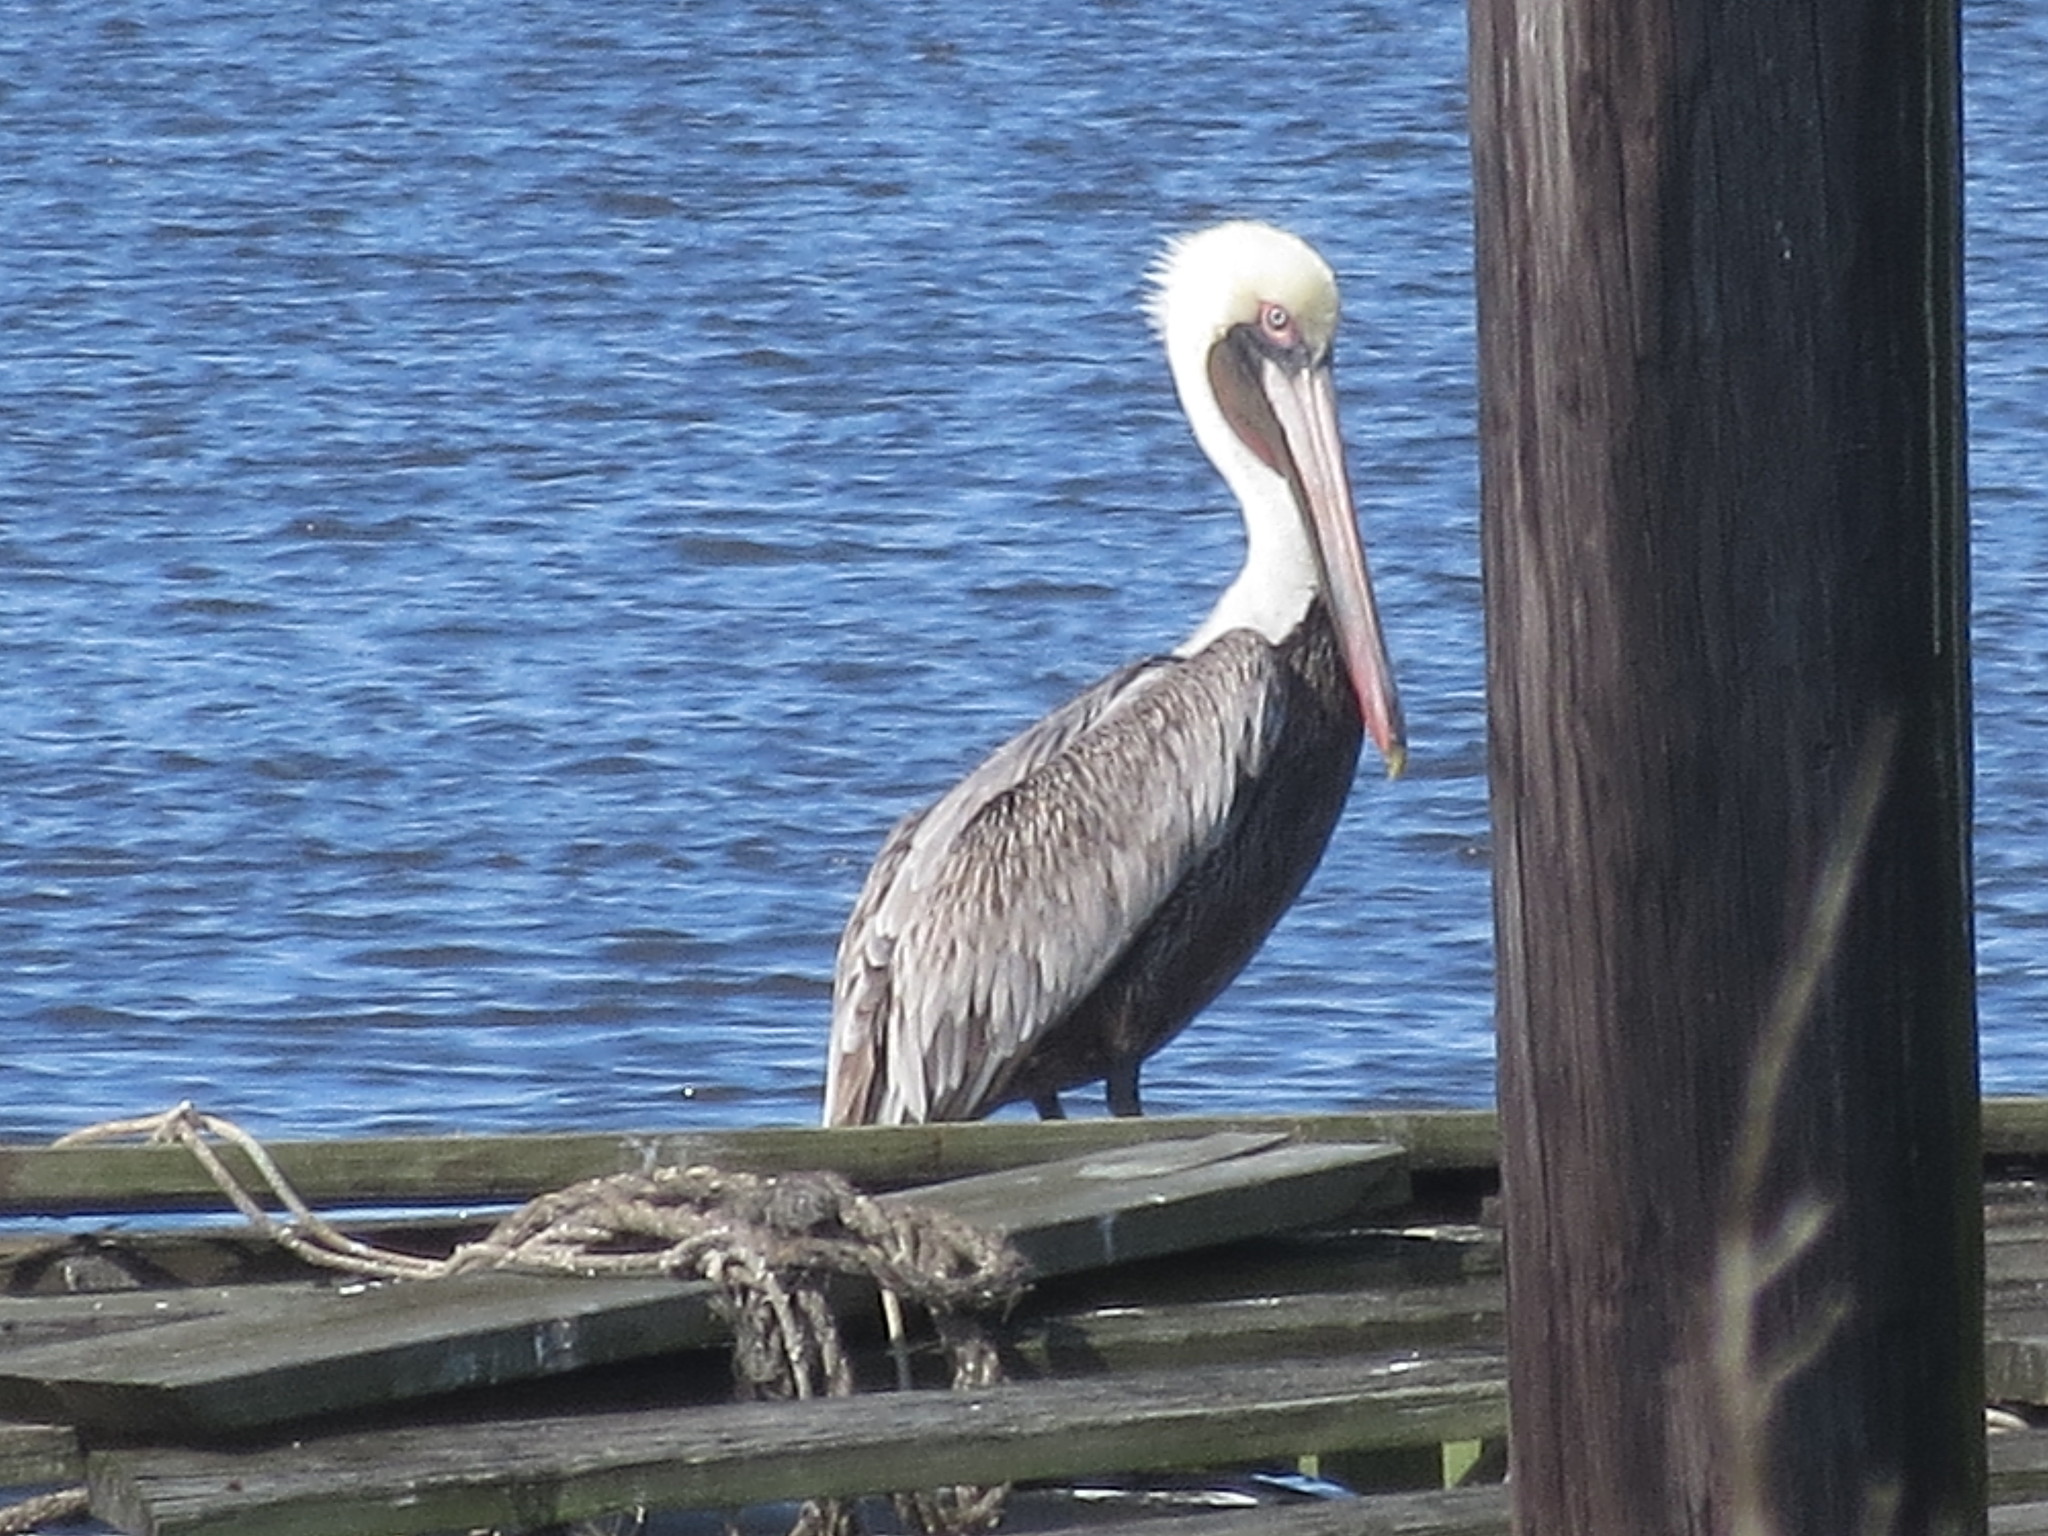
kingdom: Animalia
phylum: Chordata
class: Aves
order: Pelecaniformes
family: Pelecanidae
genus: Pelecanus
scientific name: Pelecanus occidentalis
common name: Brown pelican
